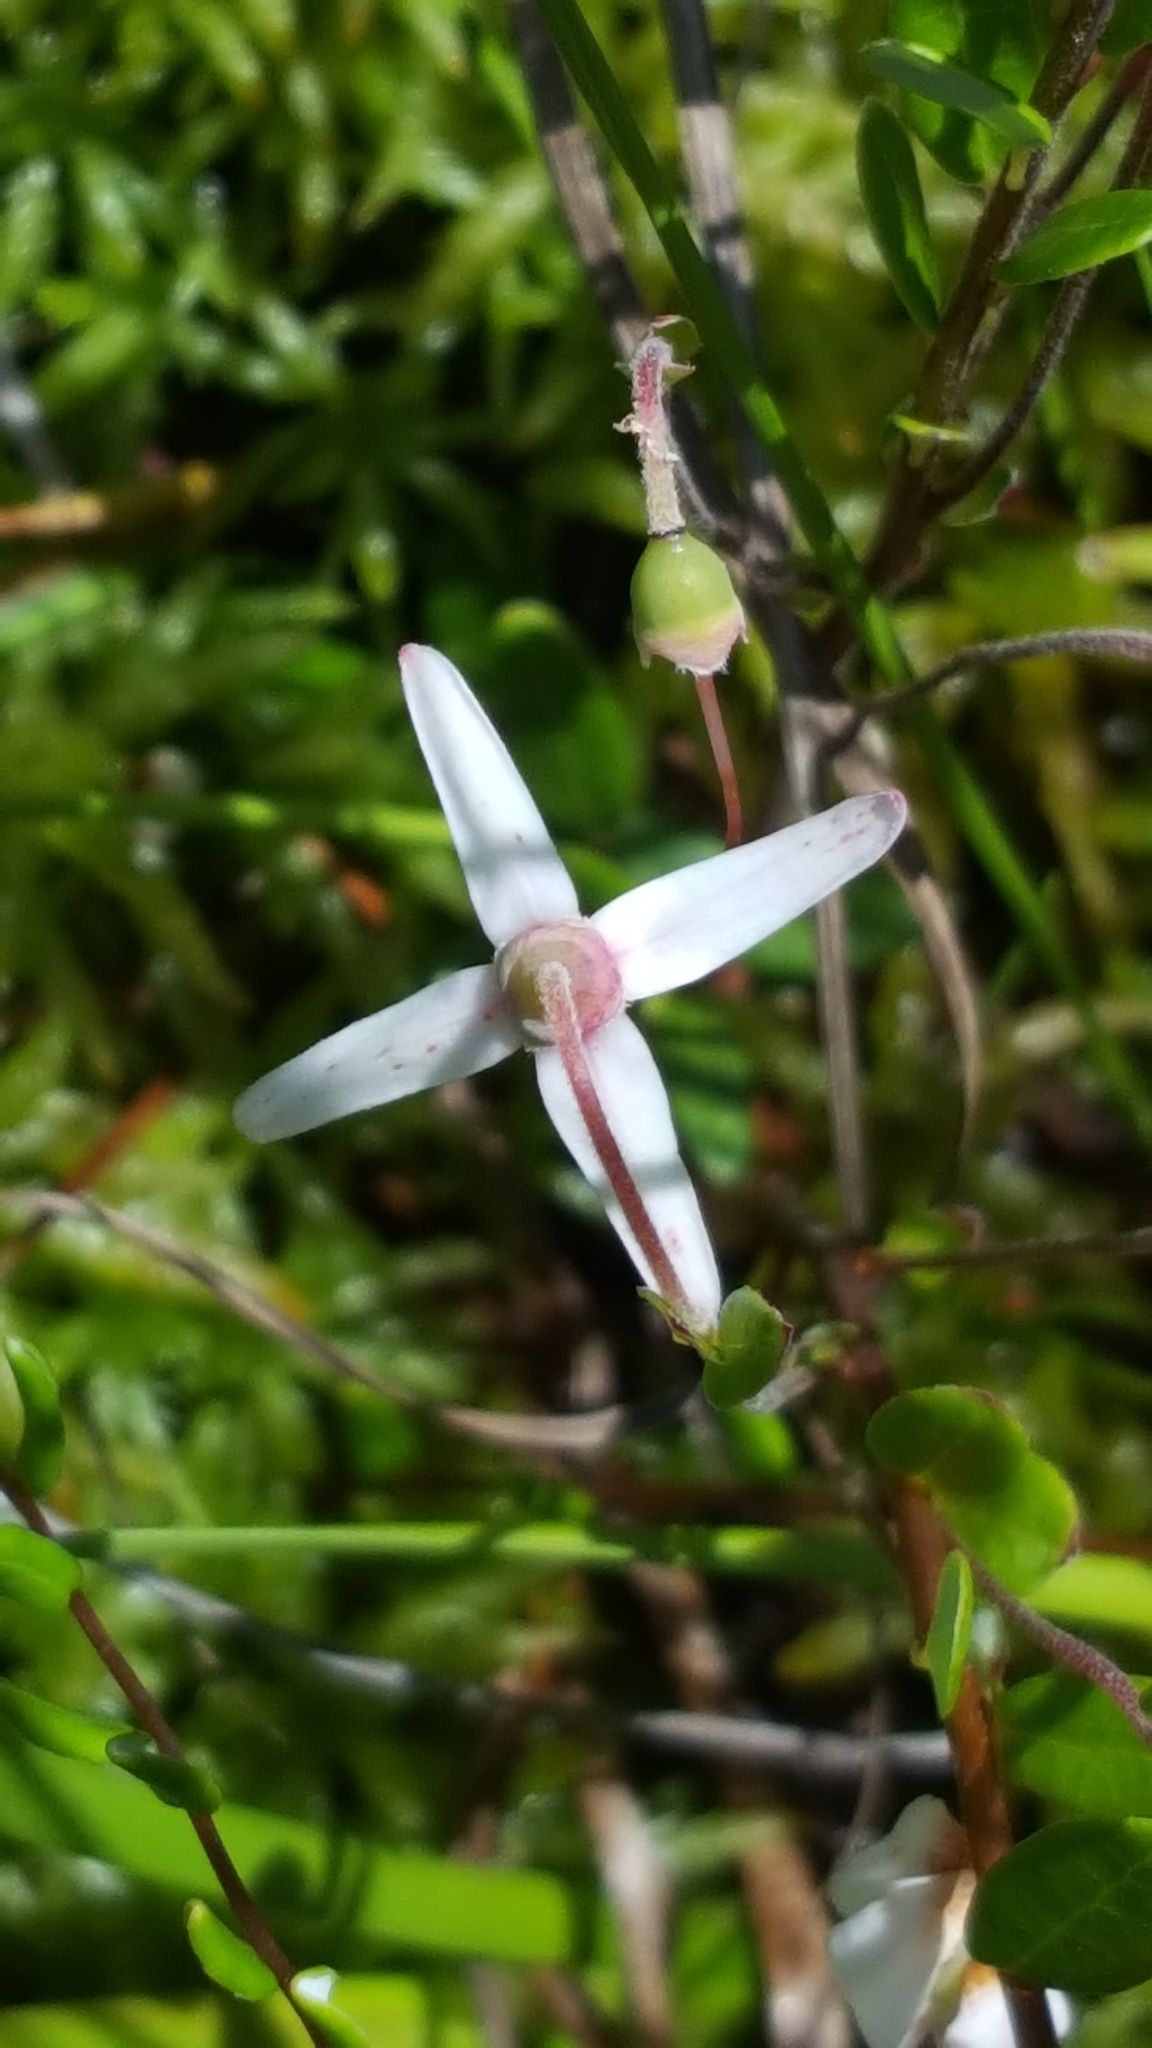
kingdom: Plantae
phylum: Tracheophyta
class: Magnoliopsida
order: Ericales
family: Ericaceae
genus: Vaccinium
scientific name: Vaccinium macrocarpon
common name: American cranberry
